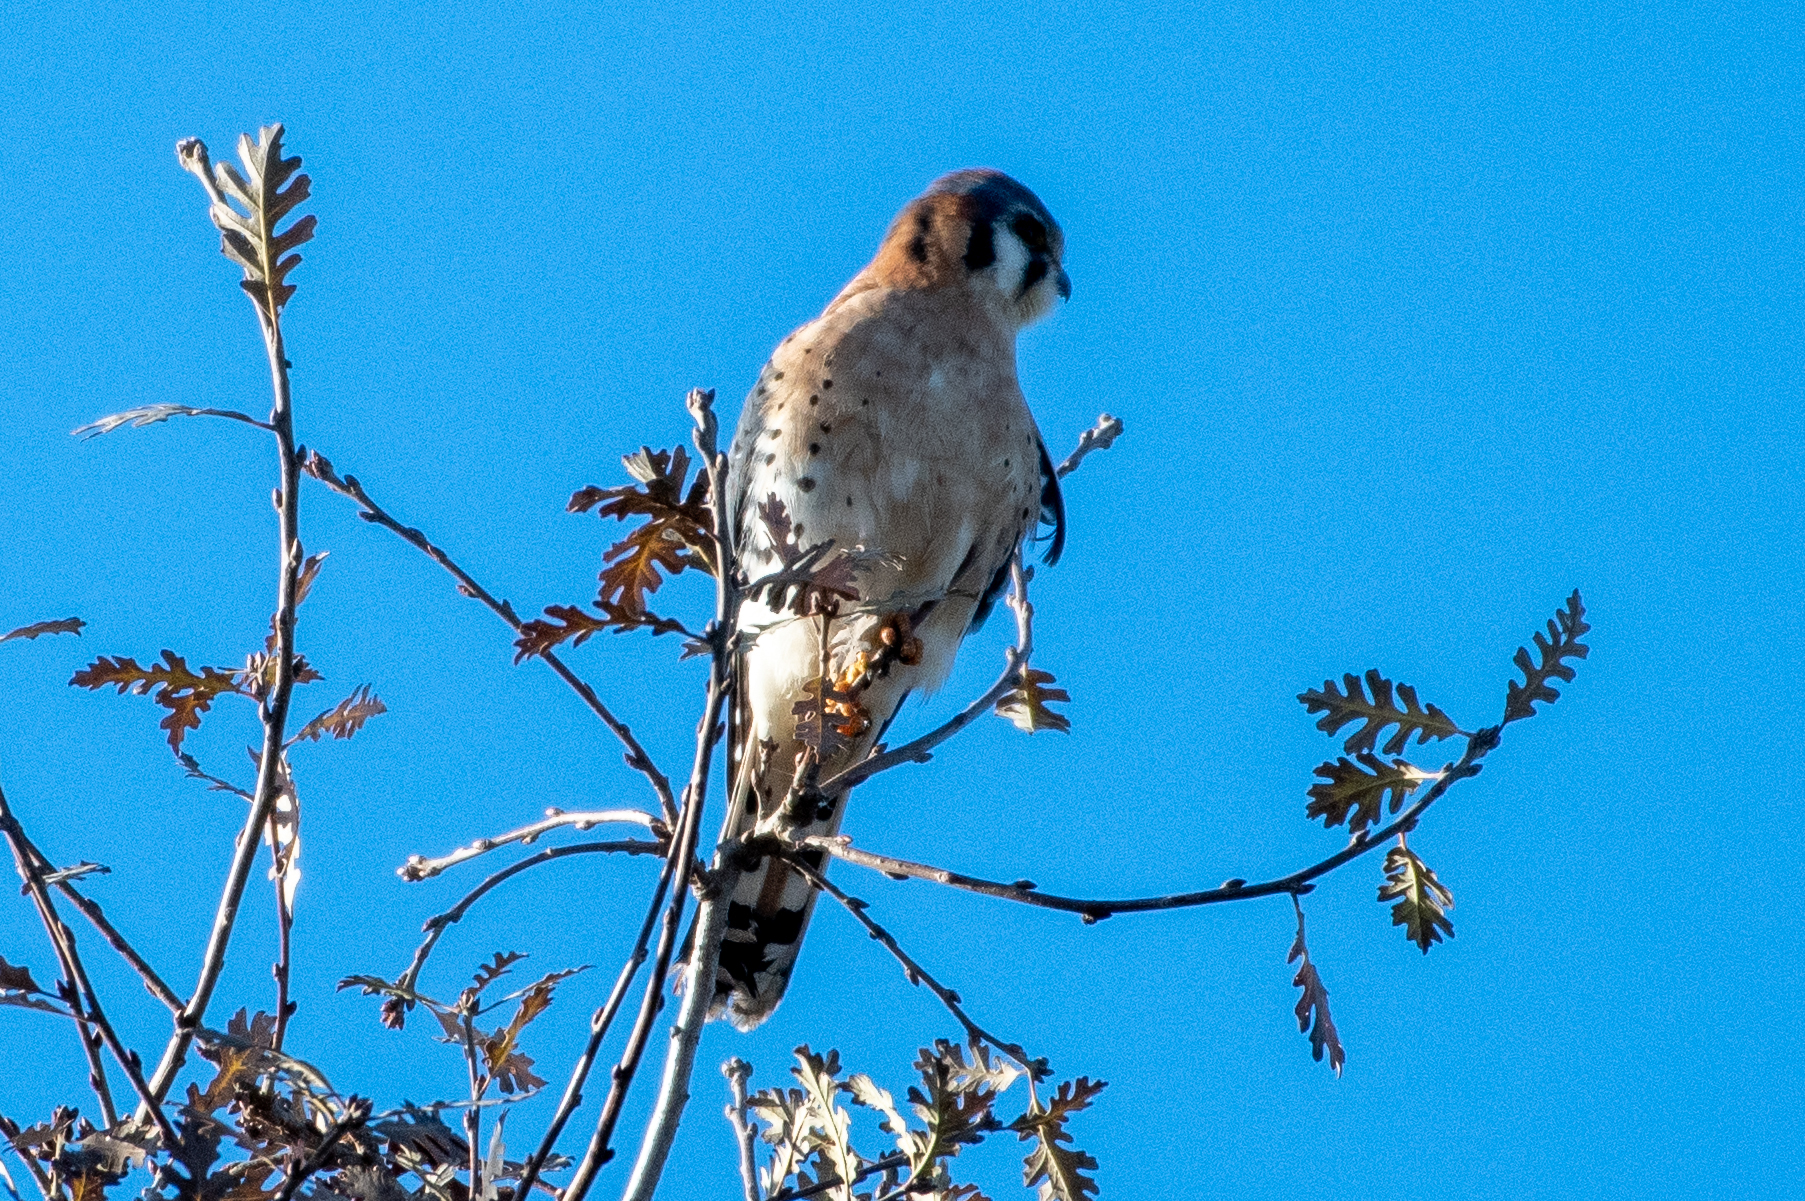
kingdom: Animalia
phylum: Chordata
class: Aves
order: Falconiformes
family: Falconidae
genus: Falco
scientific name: Falco sparverius
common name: American kestrel
